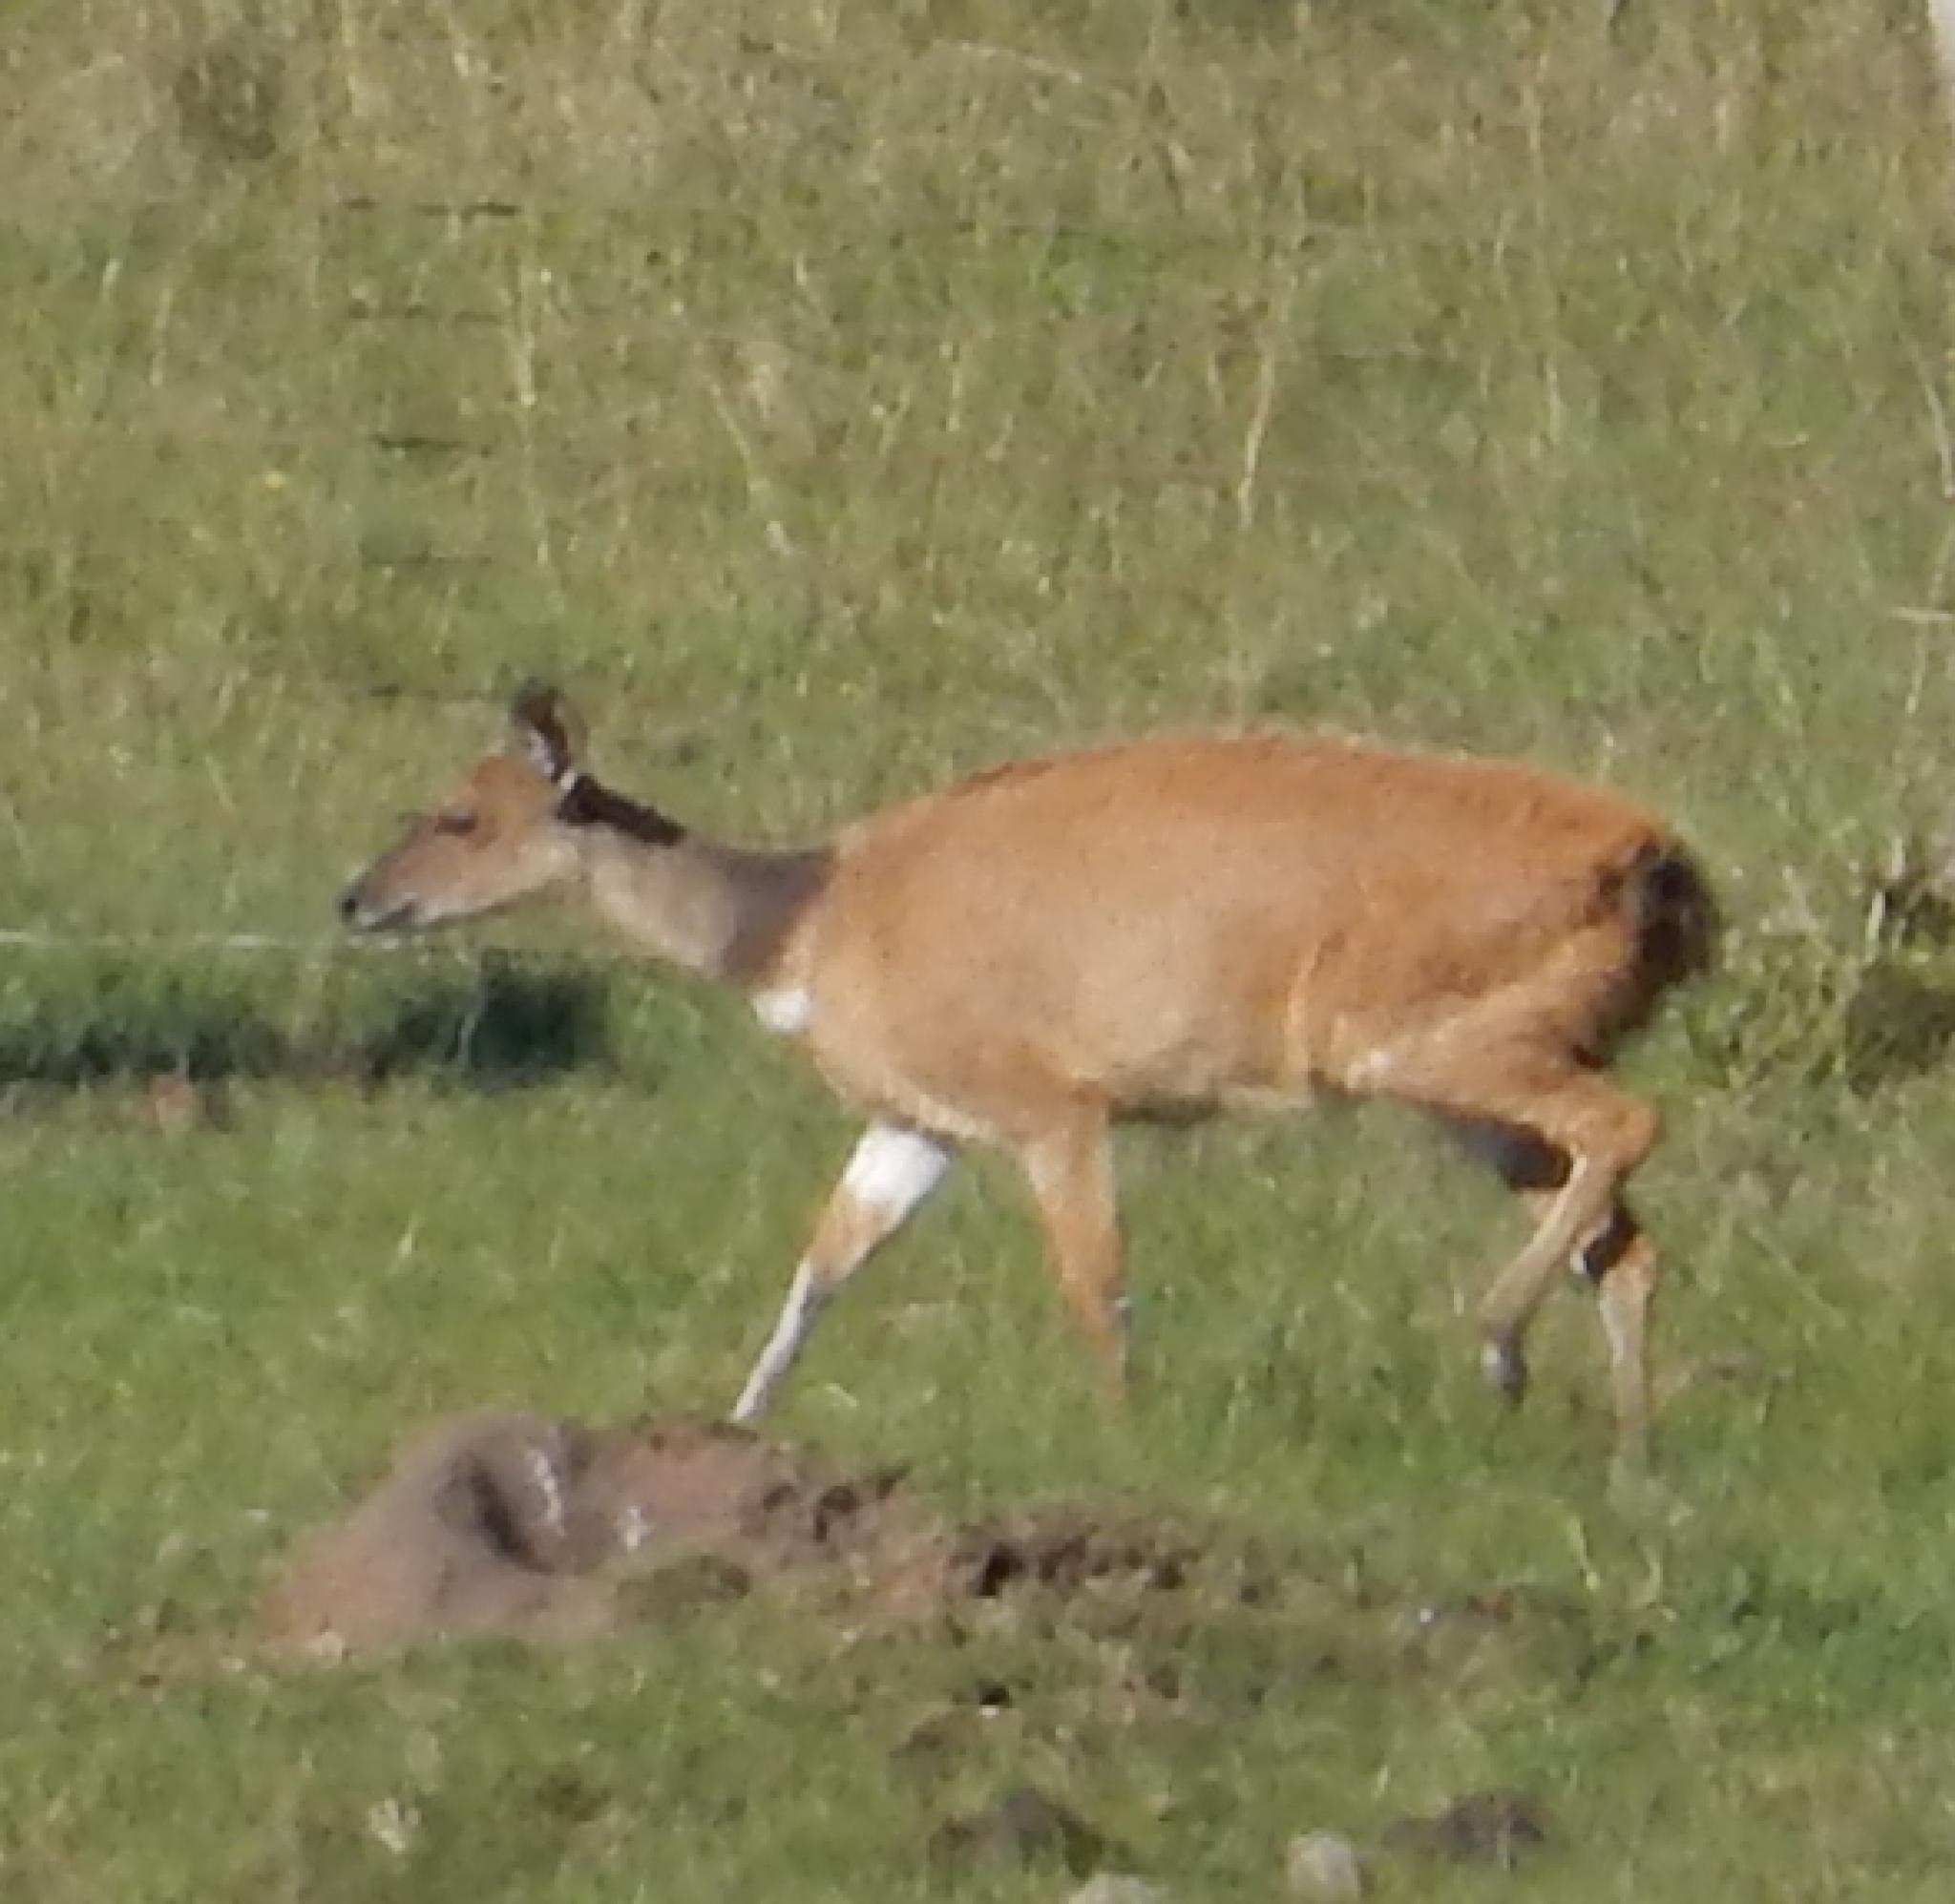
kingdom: Animalia
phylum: Chordata
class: Mammalia
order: Artiodactyla
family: Bovidae
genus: Tragelaphus
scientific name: Tragelaphus scriptus
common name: Bushbuck
